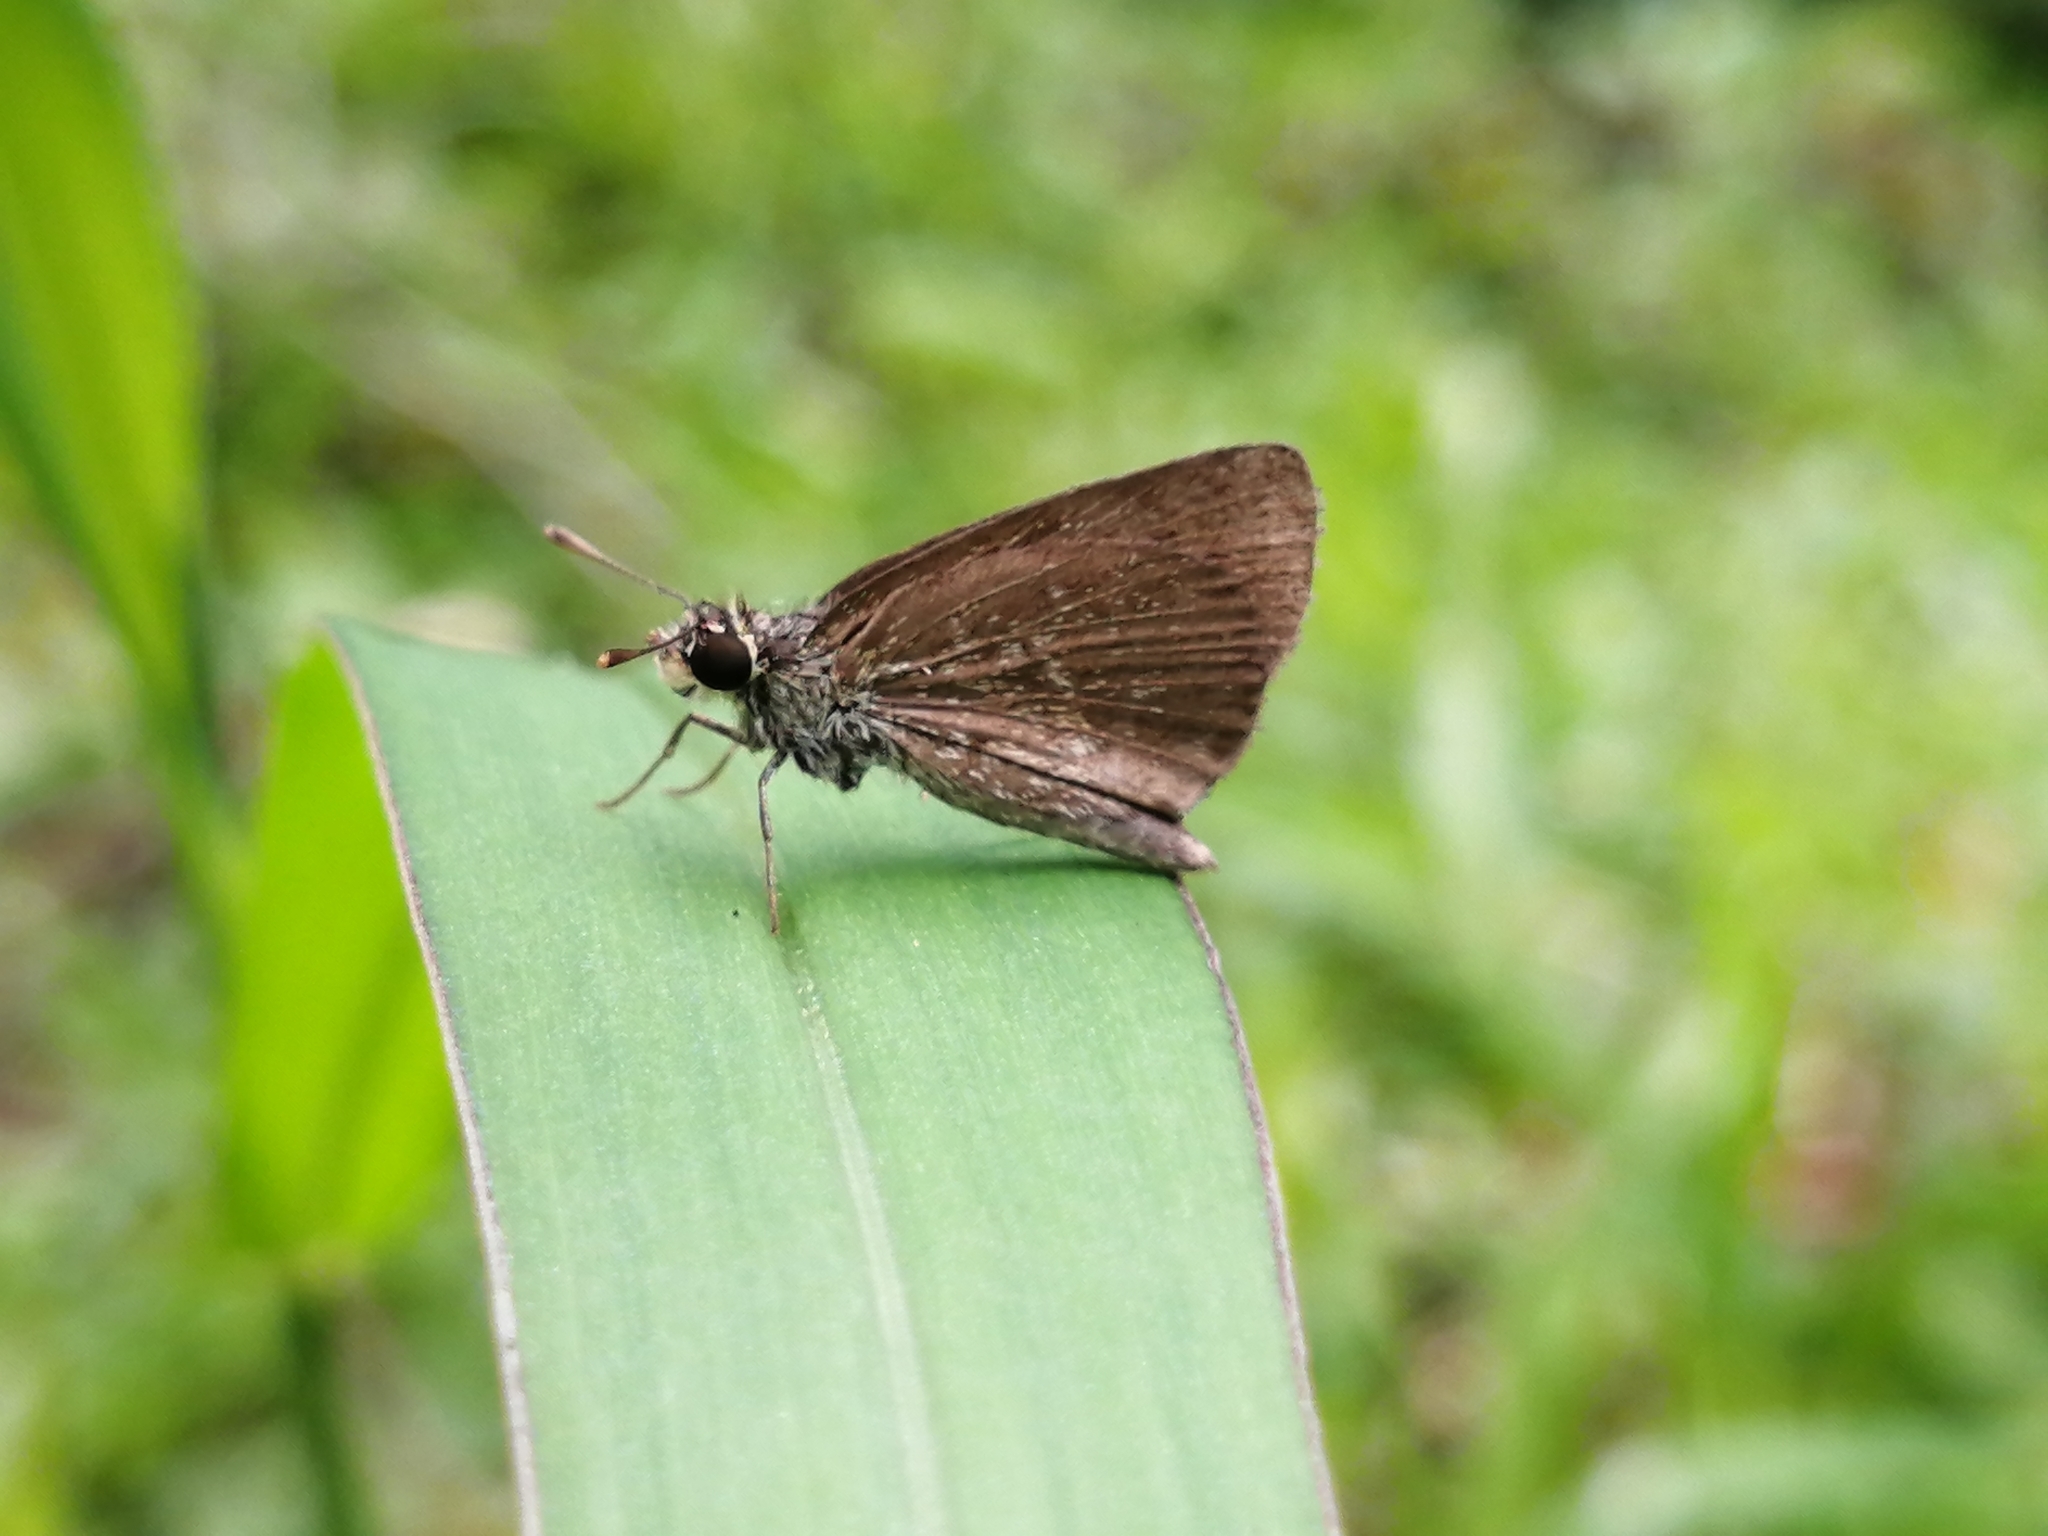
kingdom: Animalia
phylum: Arthropoda
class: Insecta
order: Lepidoptera
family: Hesperiidae
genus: Aeromachus
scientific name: Aeromachus pygmaeus
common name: Pygmy scrub hopper
